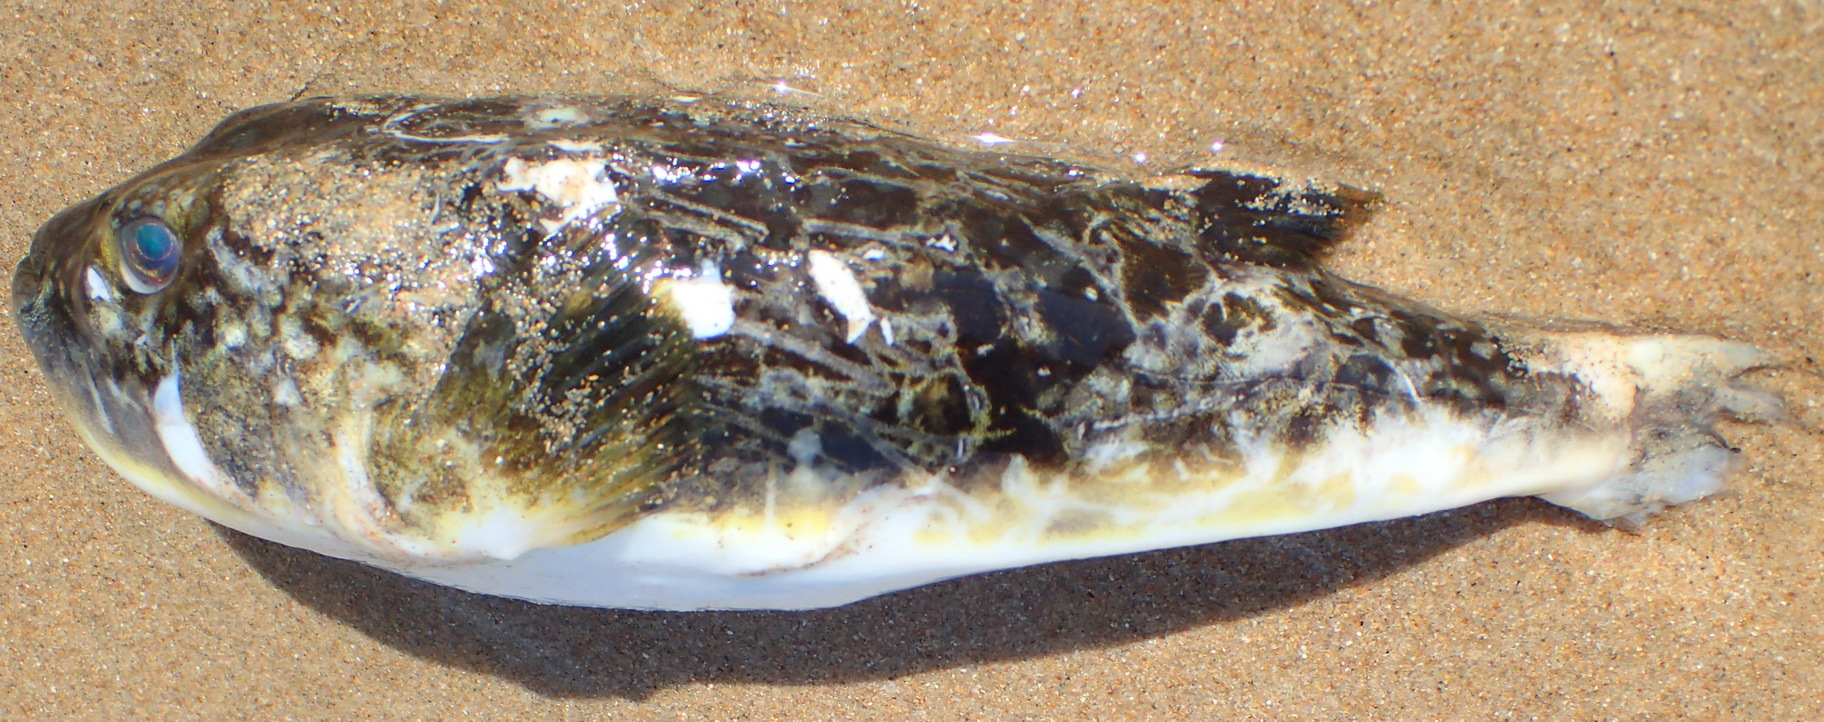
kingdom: Animalia
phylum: Chordata
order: Tetraodontiformes
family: Tetraodontidae
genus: Amblyrhynchote
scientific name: Amblyrhynchote honckenii
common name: Evileye blaasop
